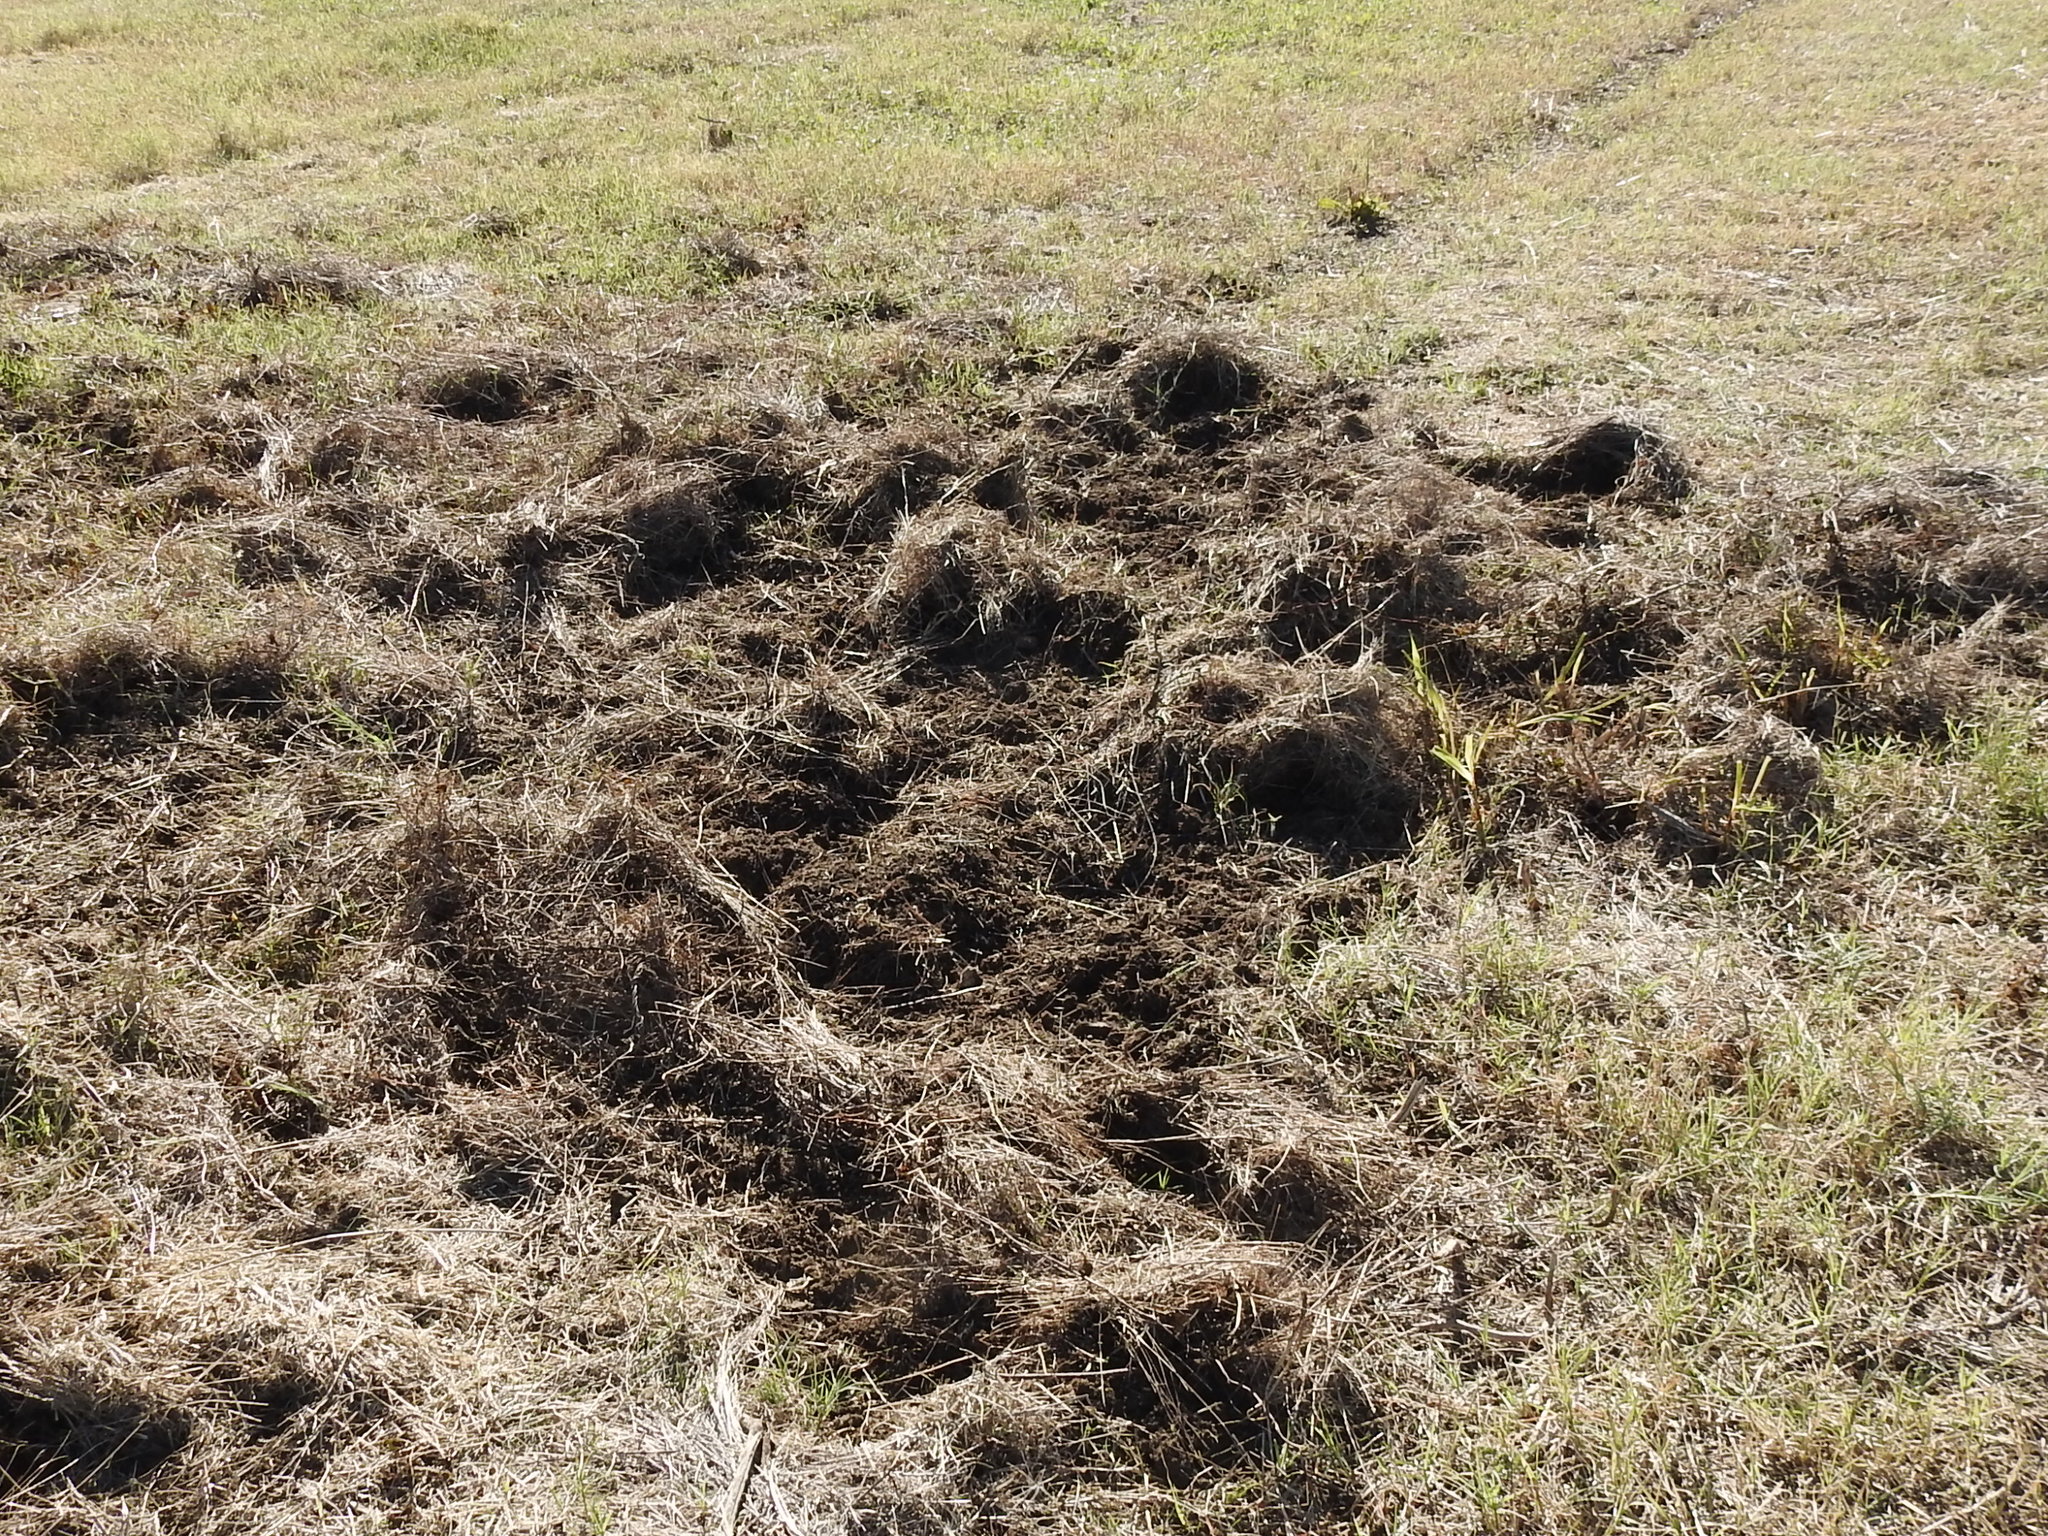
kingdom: Animalia
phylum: Chordata
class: Mammalia
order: Artiodactyla
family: Suidae
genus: Sus
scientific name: Sus scrofa
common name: Wild boar
